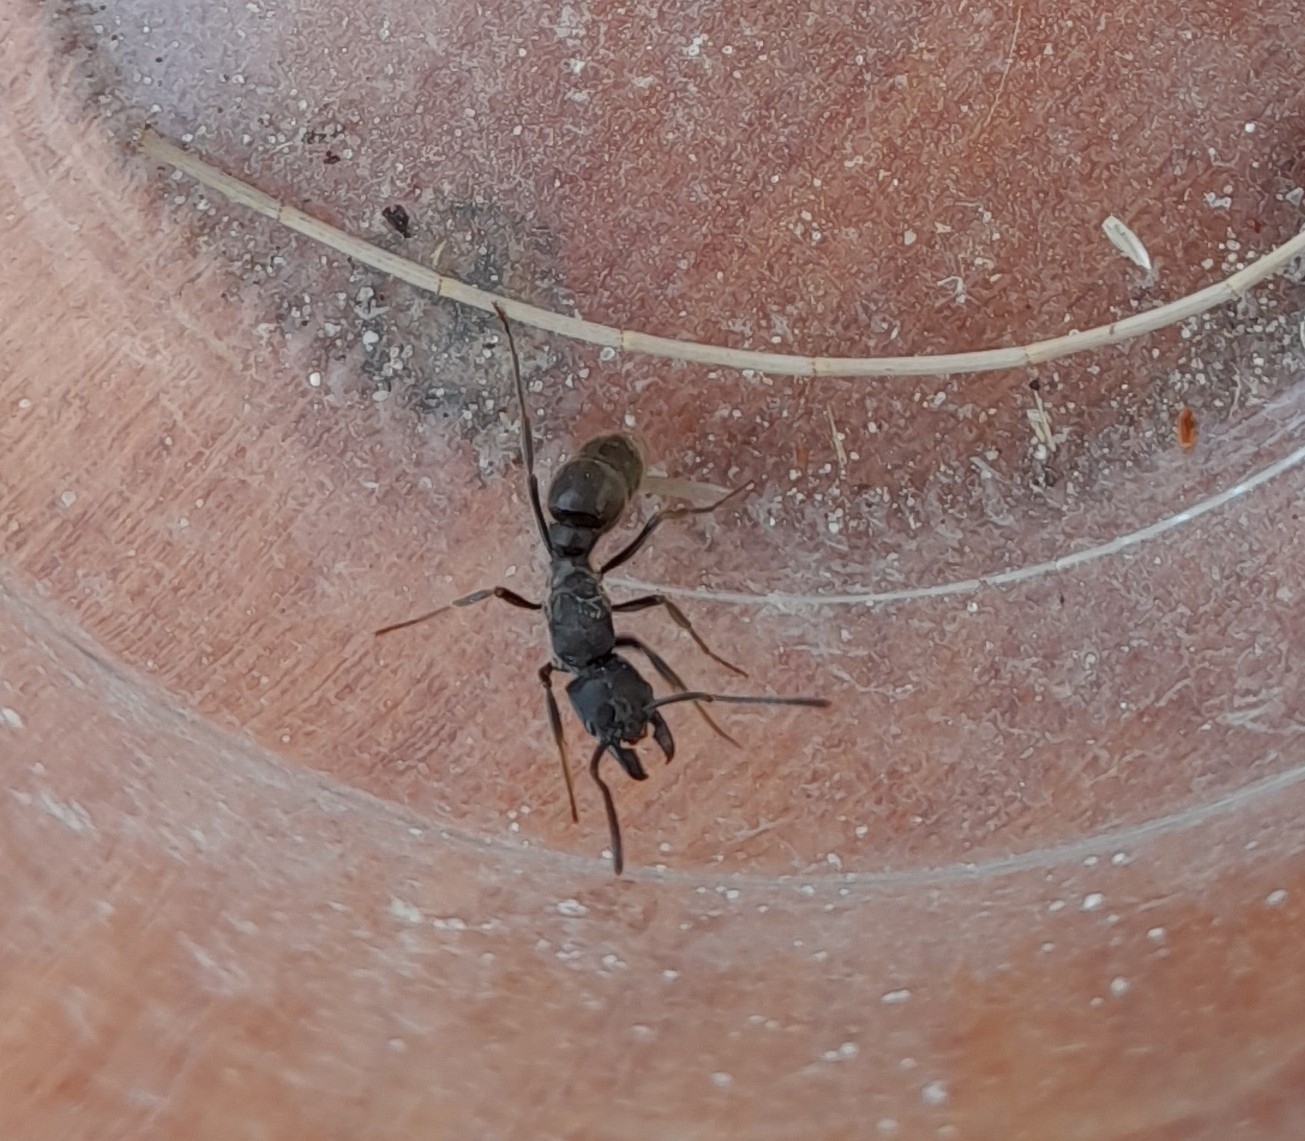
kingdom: Animalia
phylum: Arthropoda
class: Insecta
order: Hymenoptera
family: Formicidae
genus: Pachycondyla
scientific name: Pachycondyla striata
